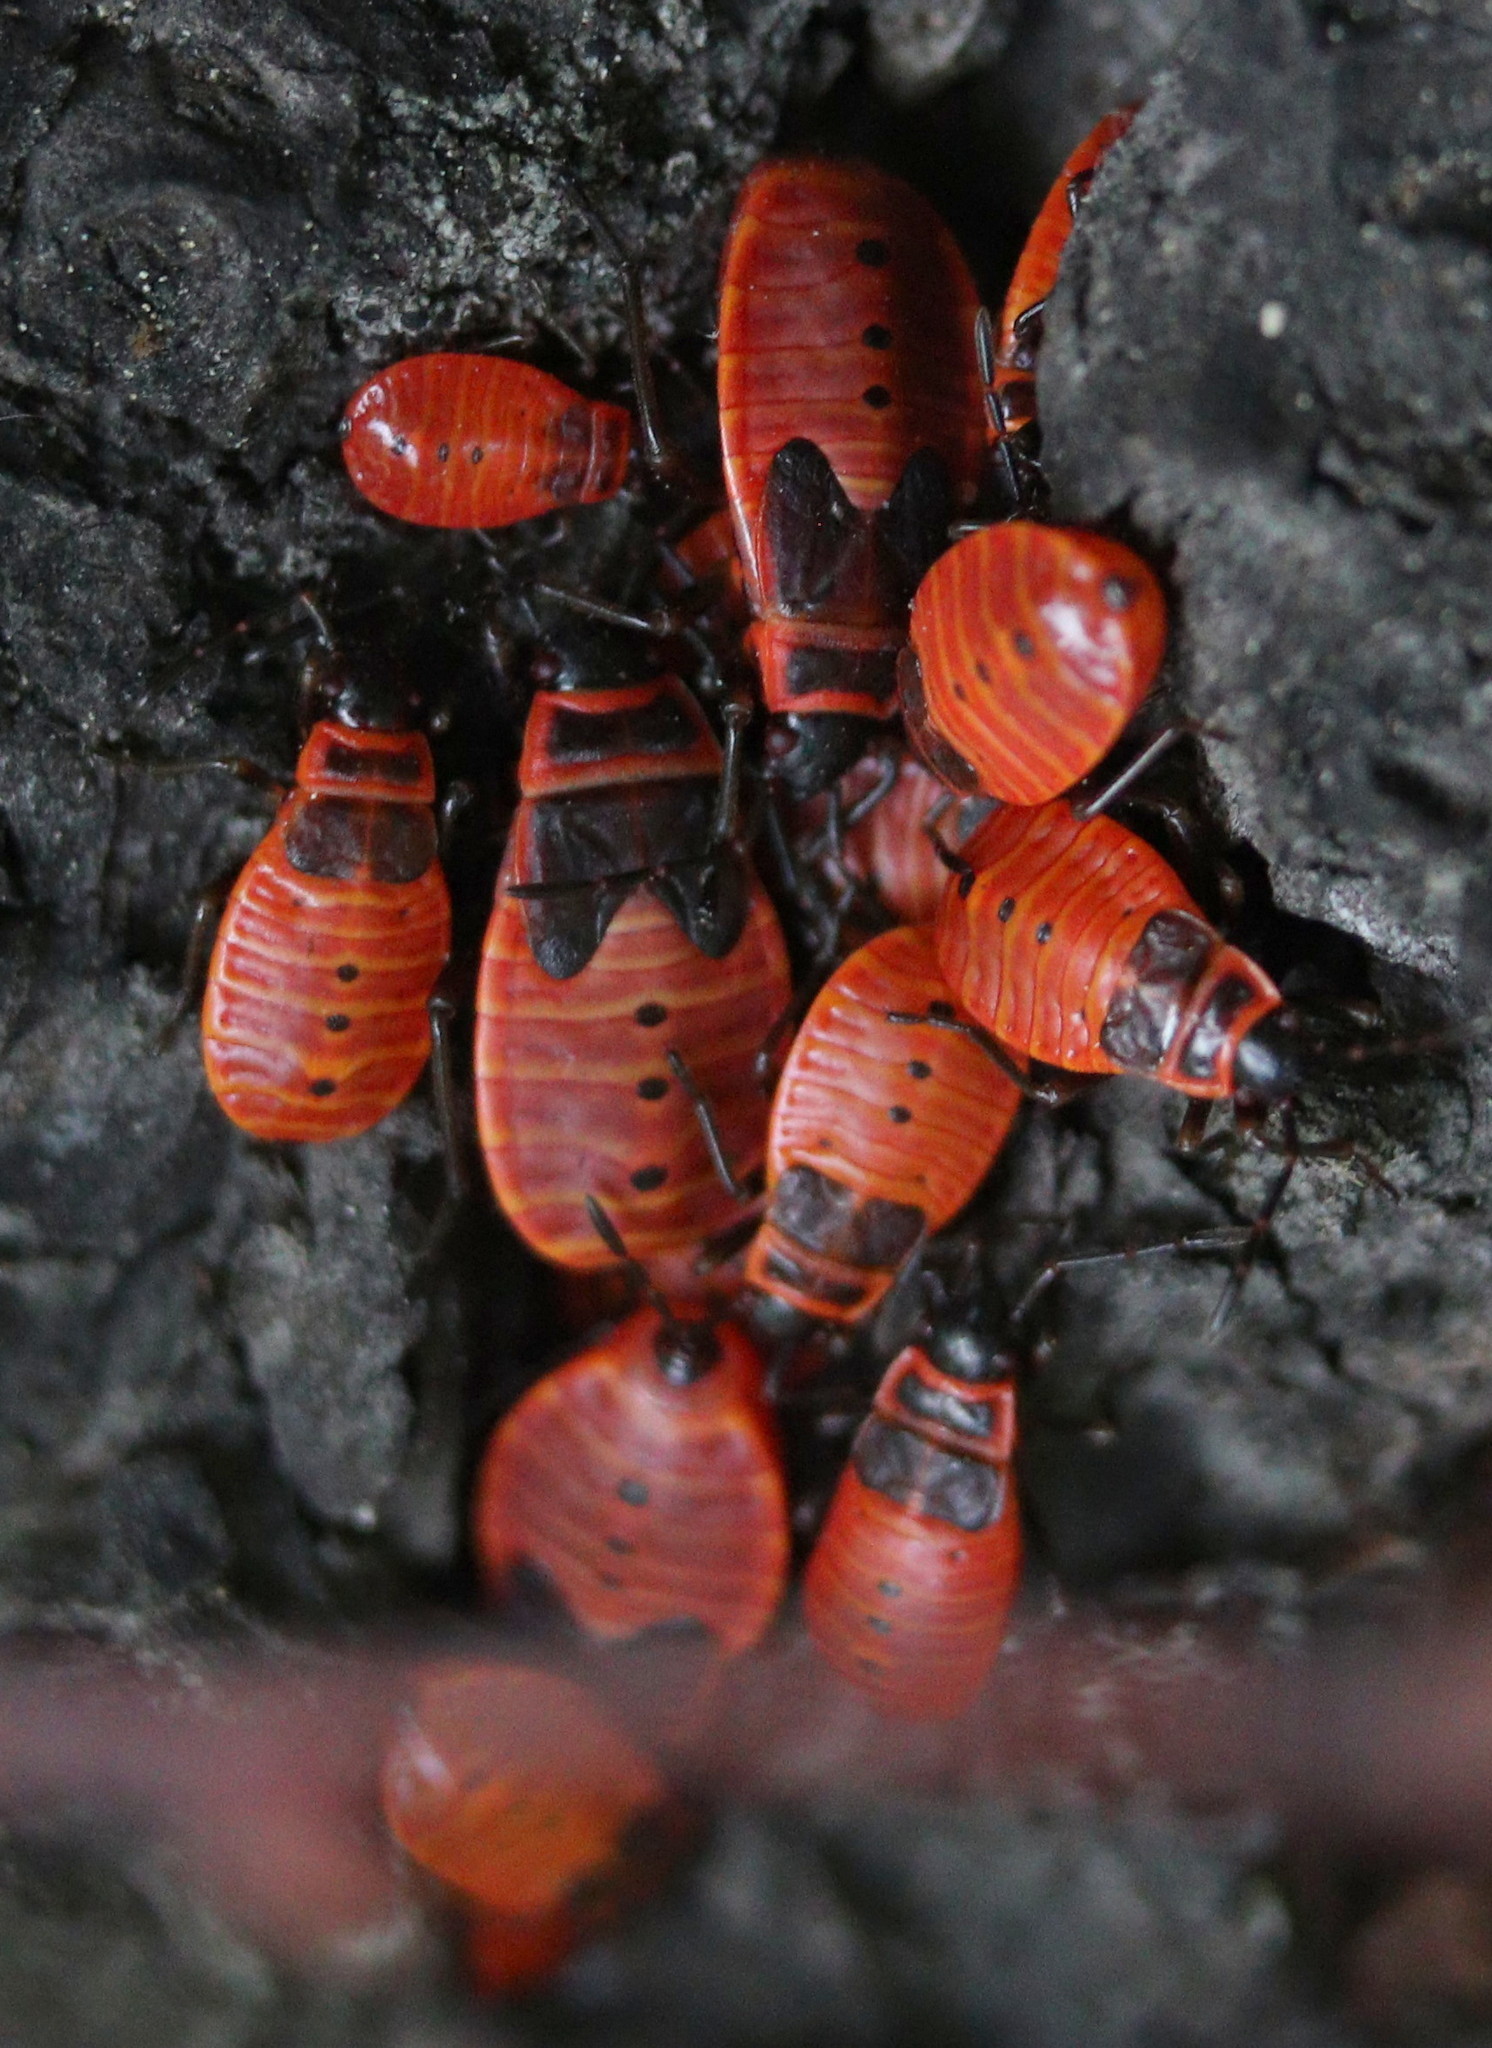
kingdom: Animalia
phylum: Arthropoda
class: Insecta
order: Hemiptera
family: Pyrrhocoridae
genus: Pyrrhocoris
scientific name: Pyrrhocoris apterus
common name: Firebug
